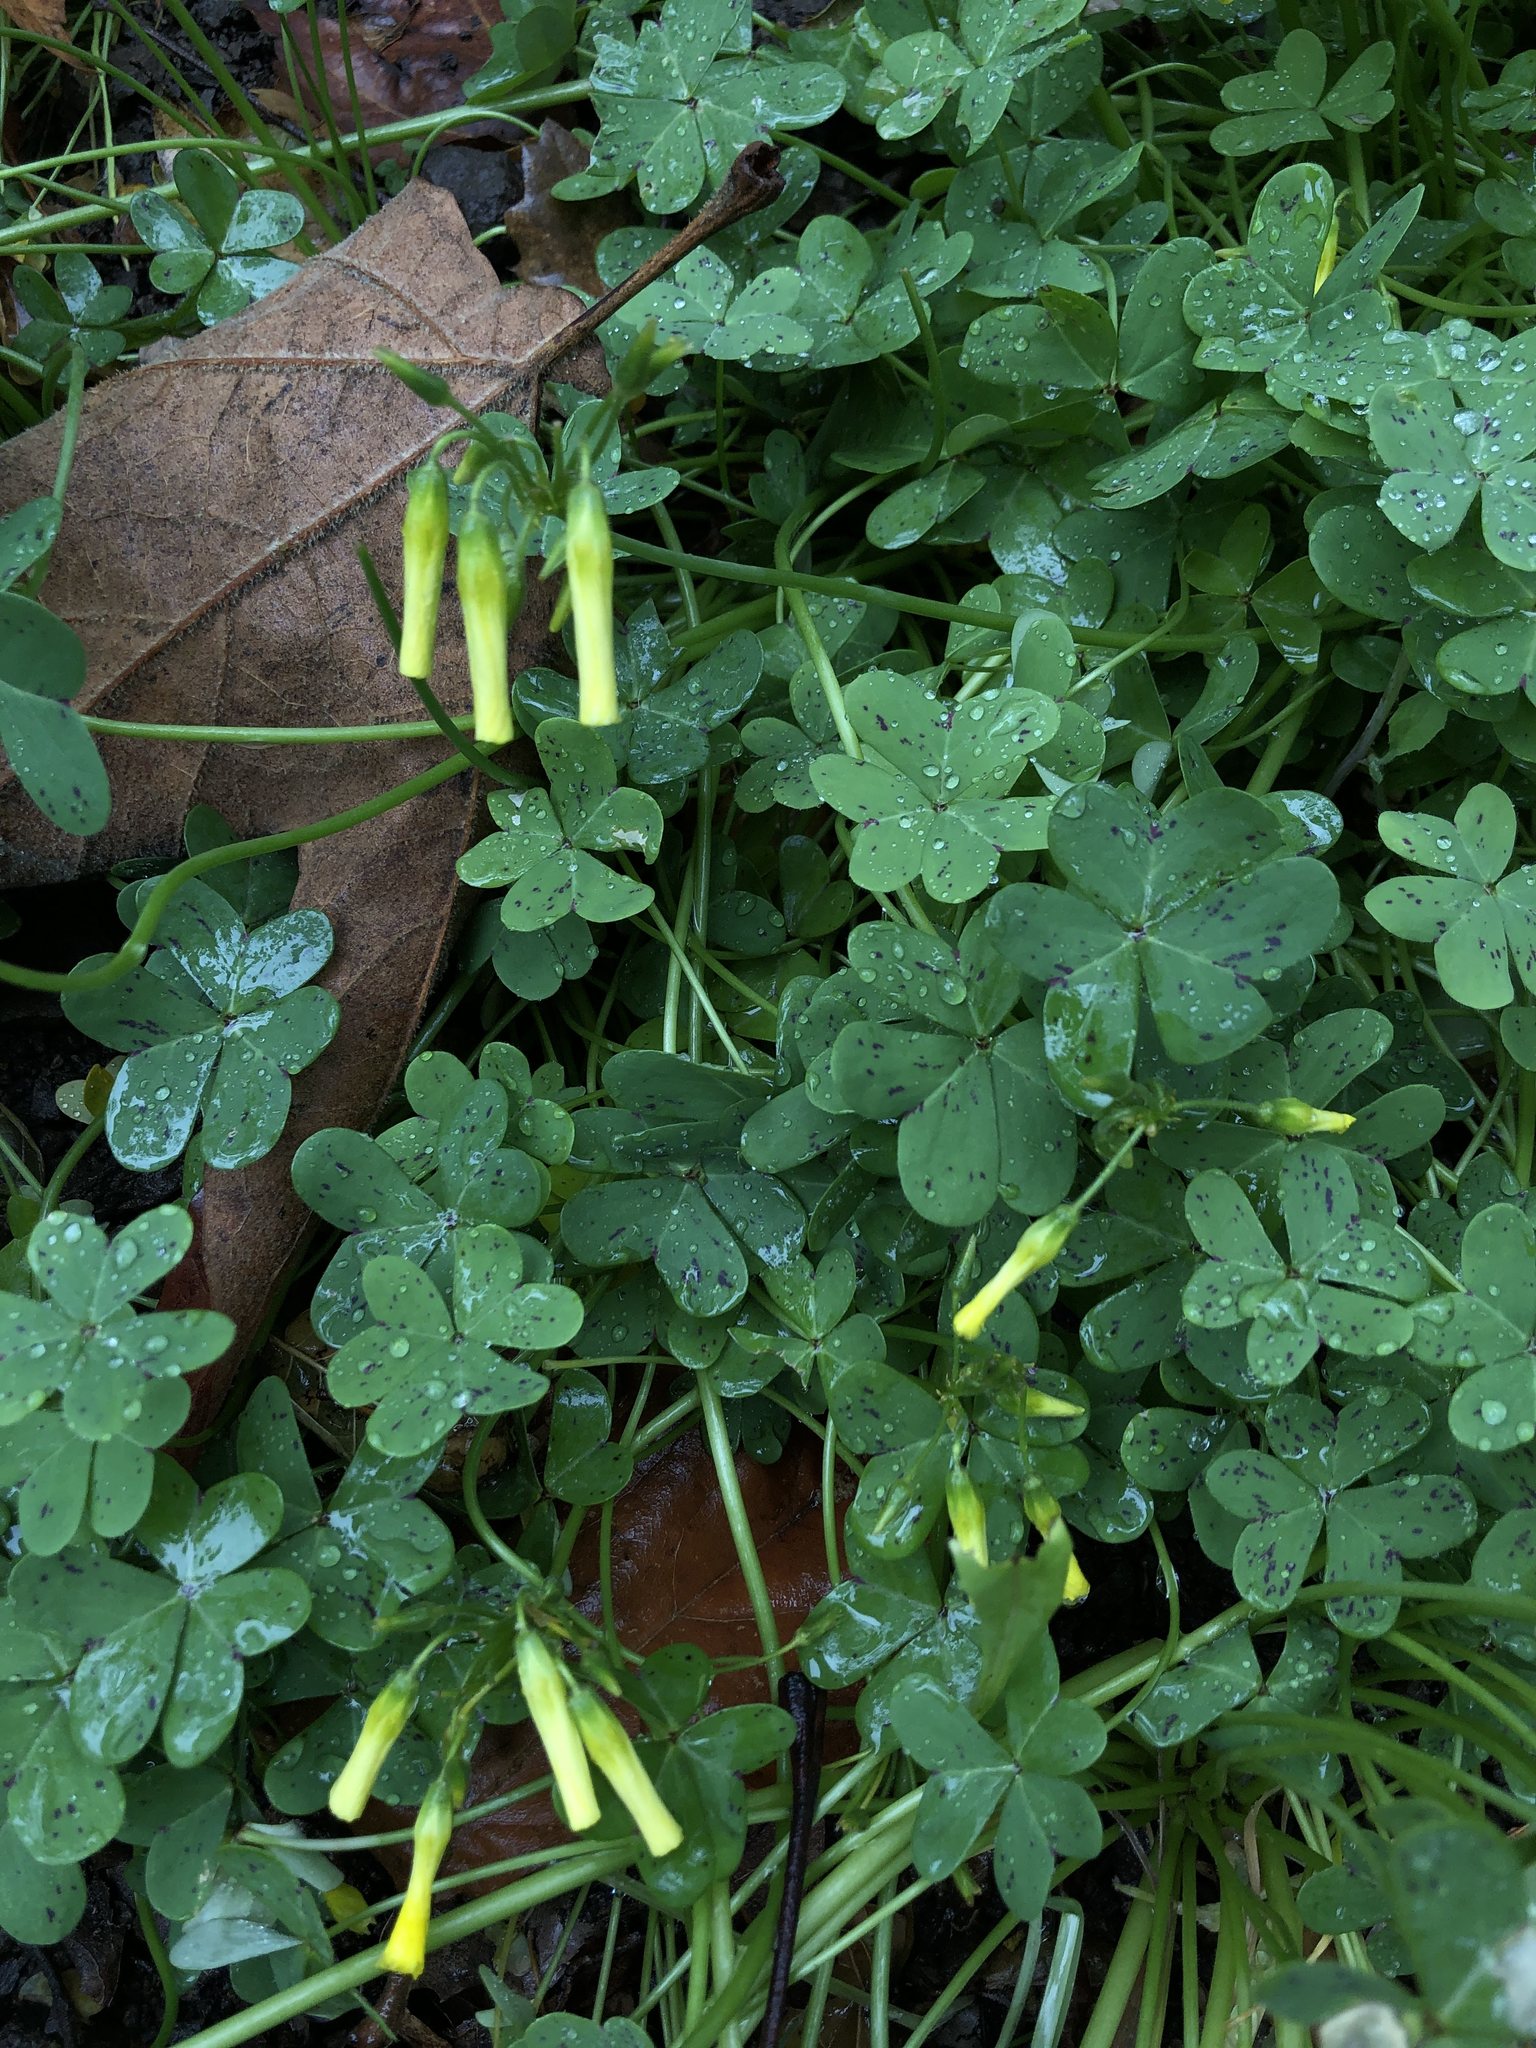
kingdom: Plantae
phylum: Tracheophyta
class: Magnoliopsida
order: Oxalidales
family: Oxalidaceae
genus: Oxalis
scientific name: Oxalis pes-caprae
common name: Bermuda-buttercup
